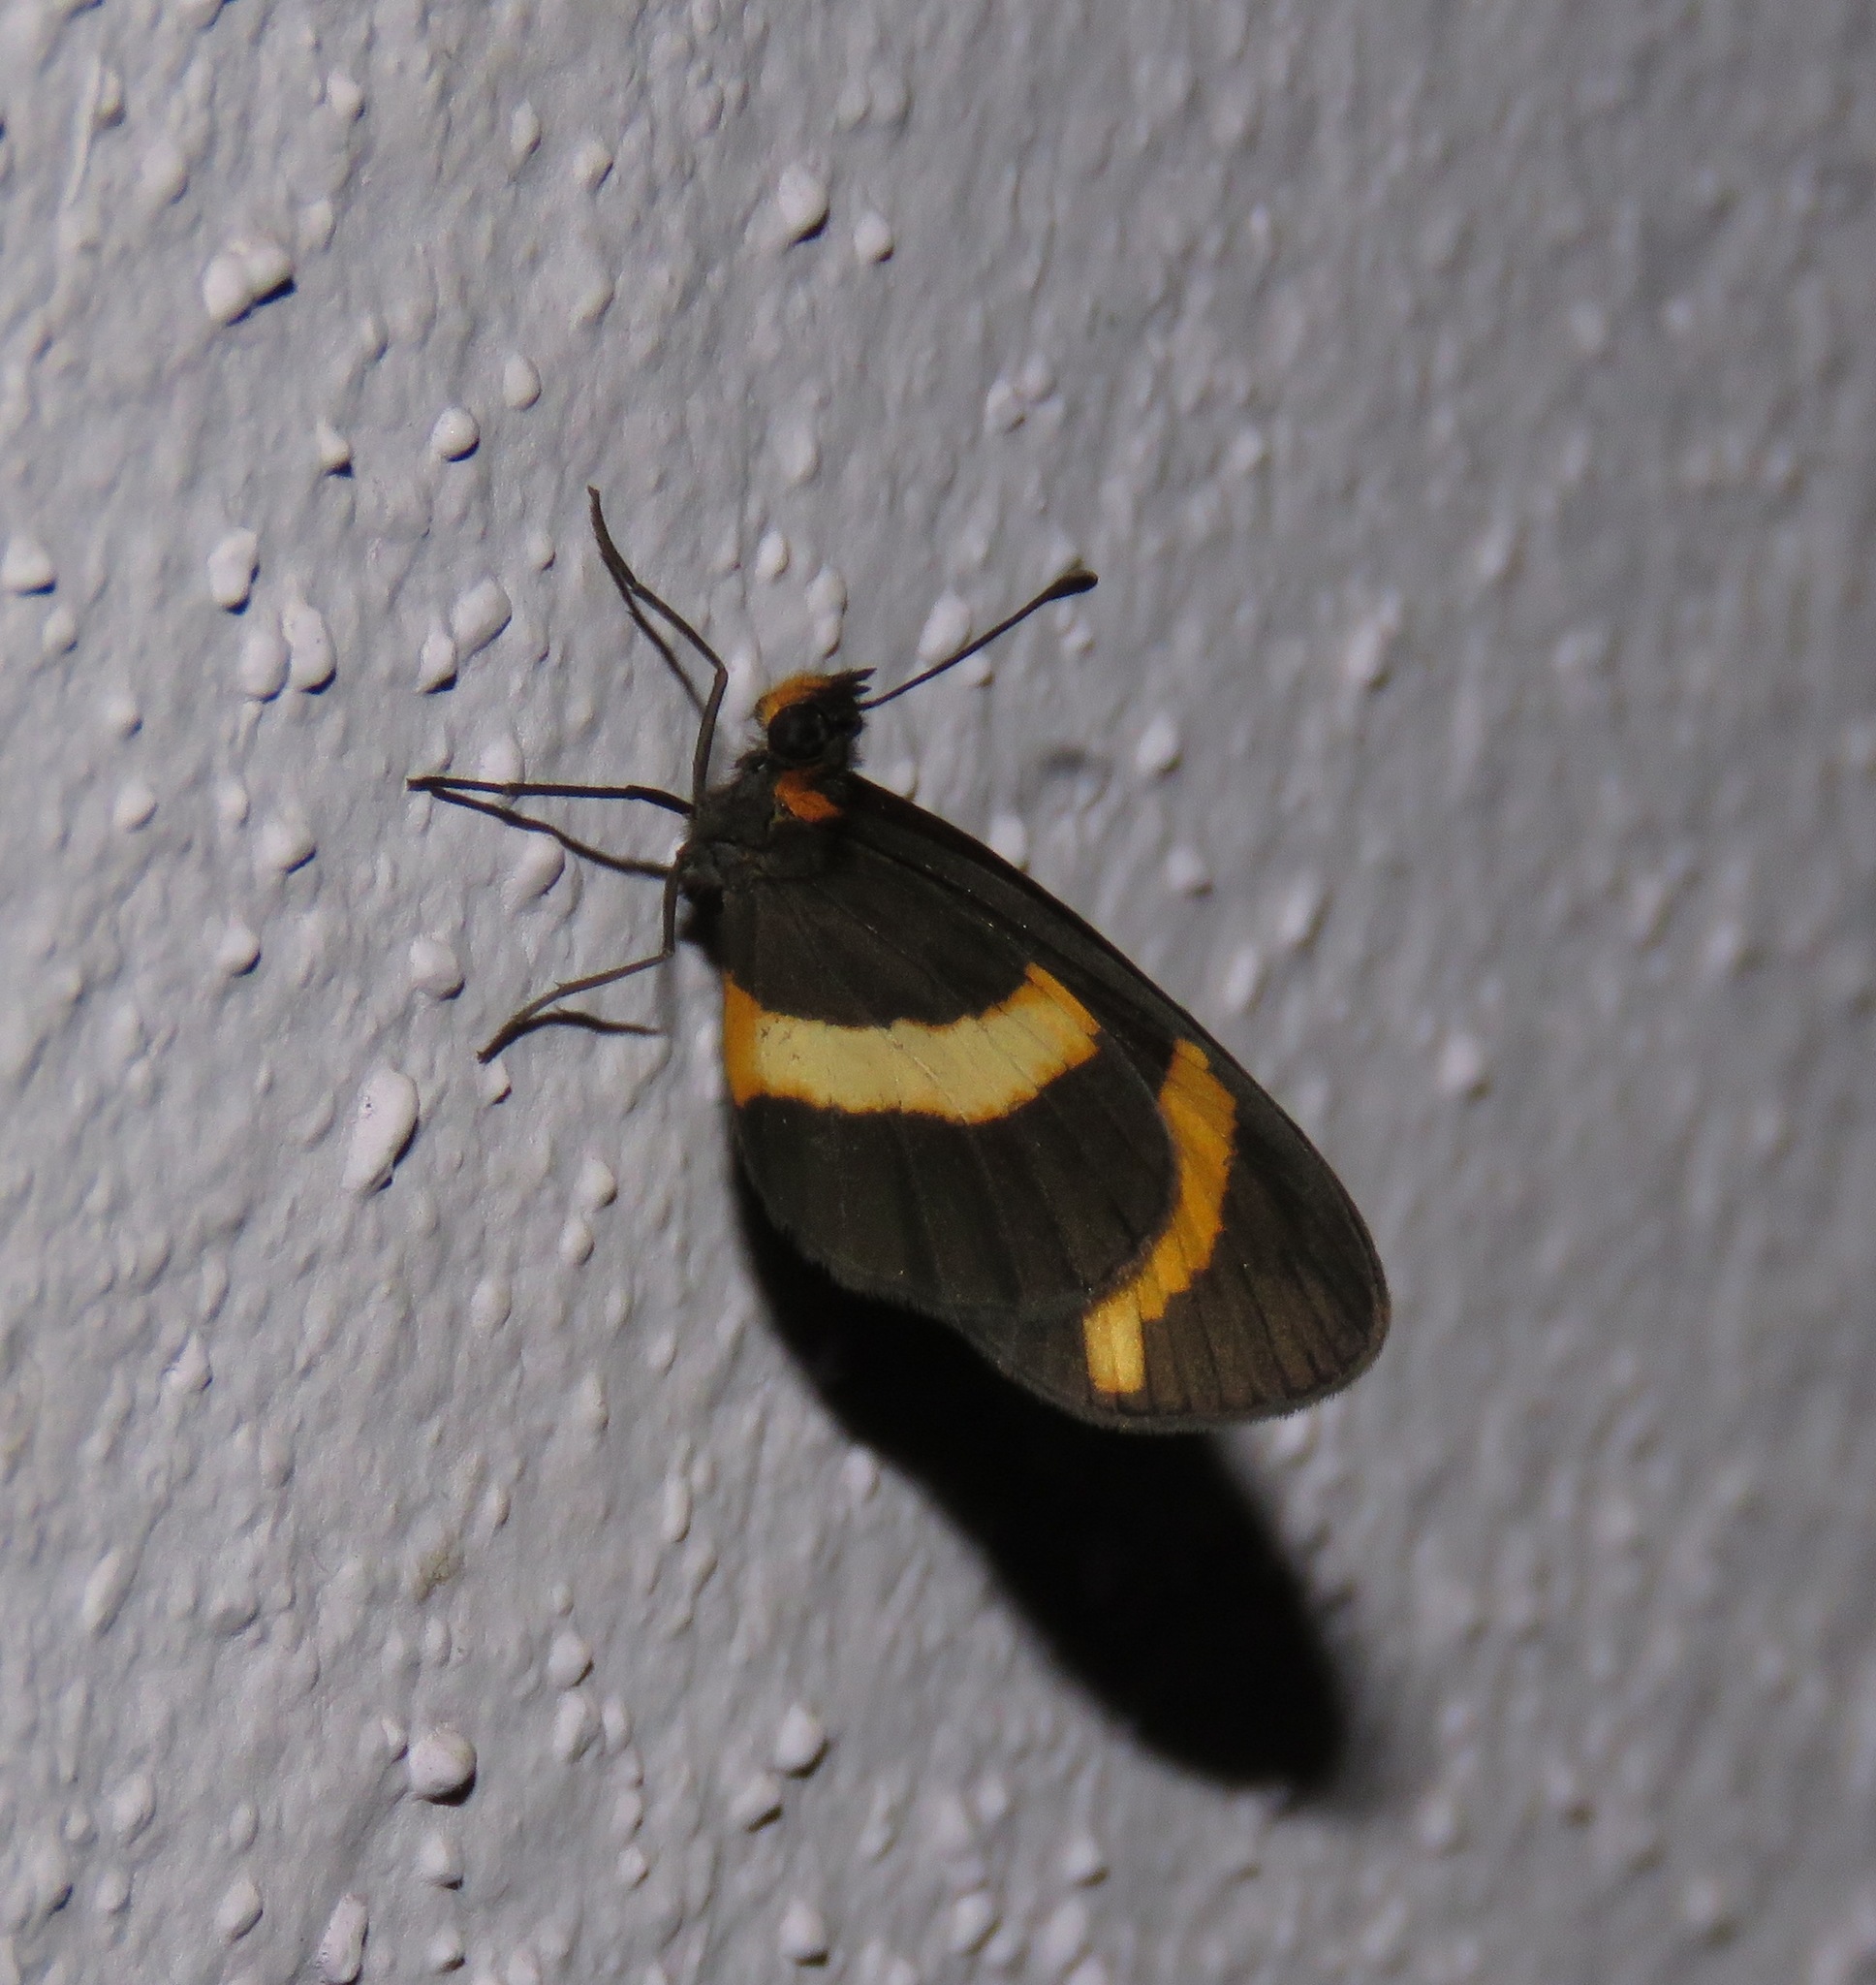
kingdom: Animalia
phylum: Arthropoda
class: Insecta
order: Lepidoptera
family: Nymphalidae
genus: Microtia
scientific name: Microtia elva
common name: Elf
